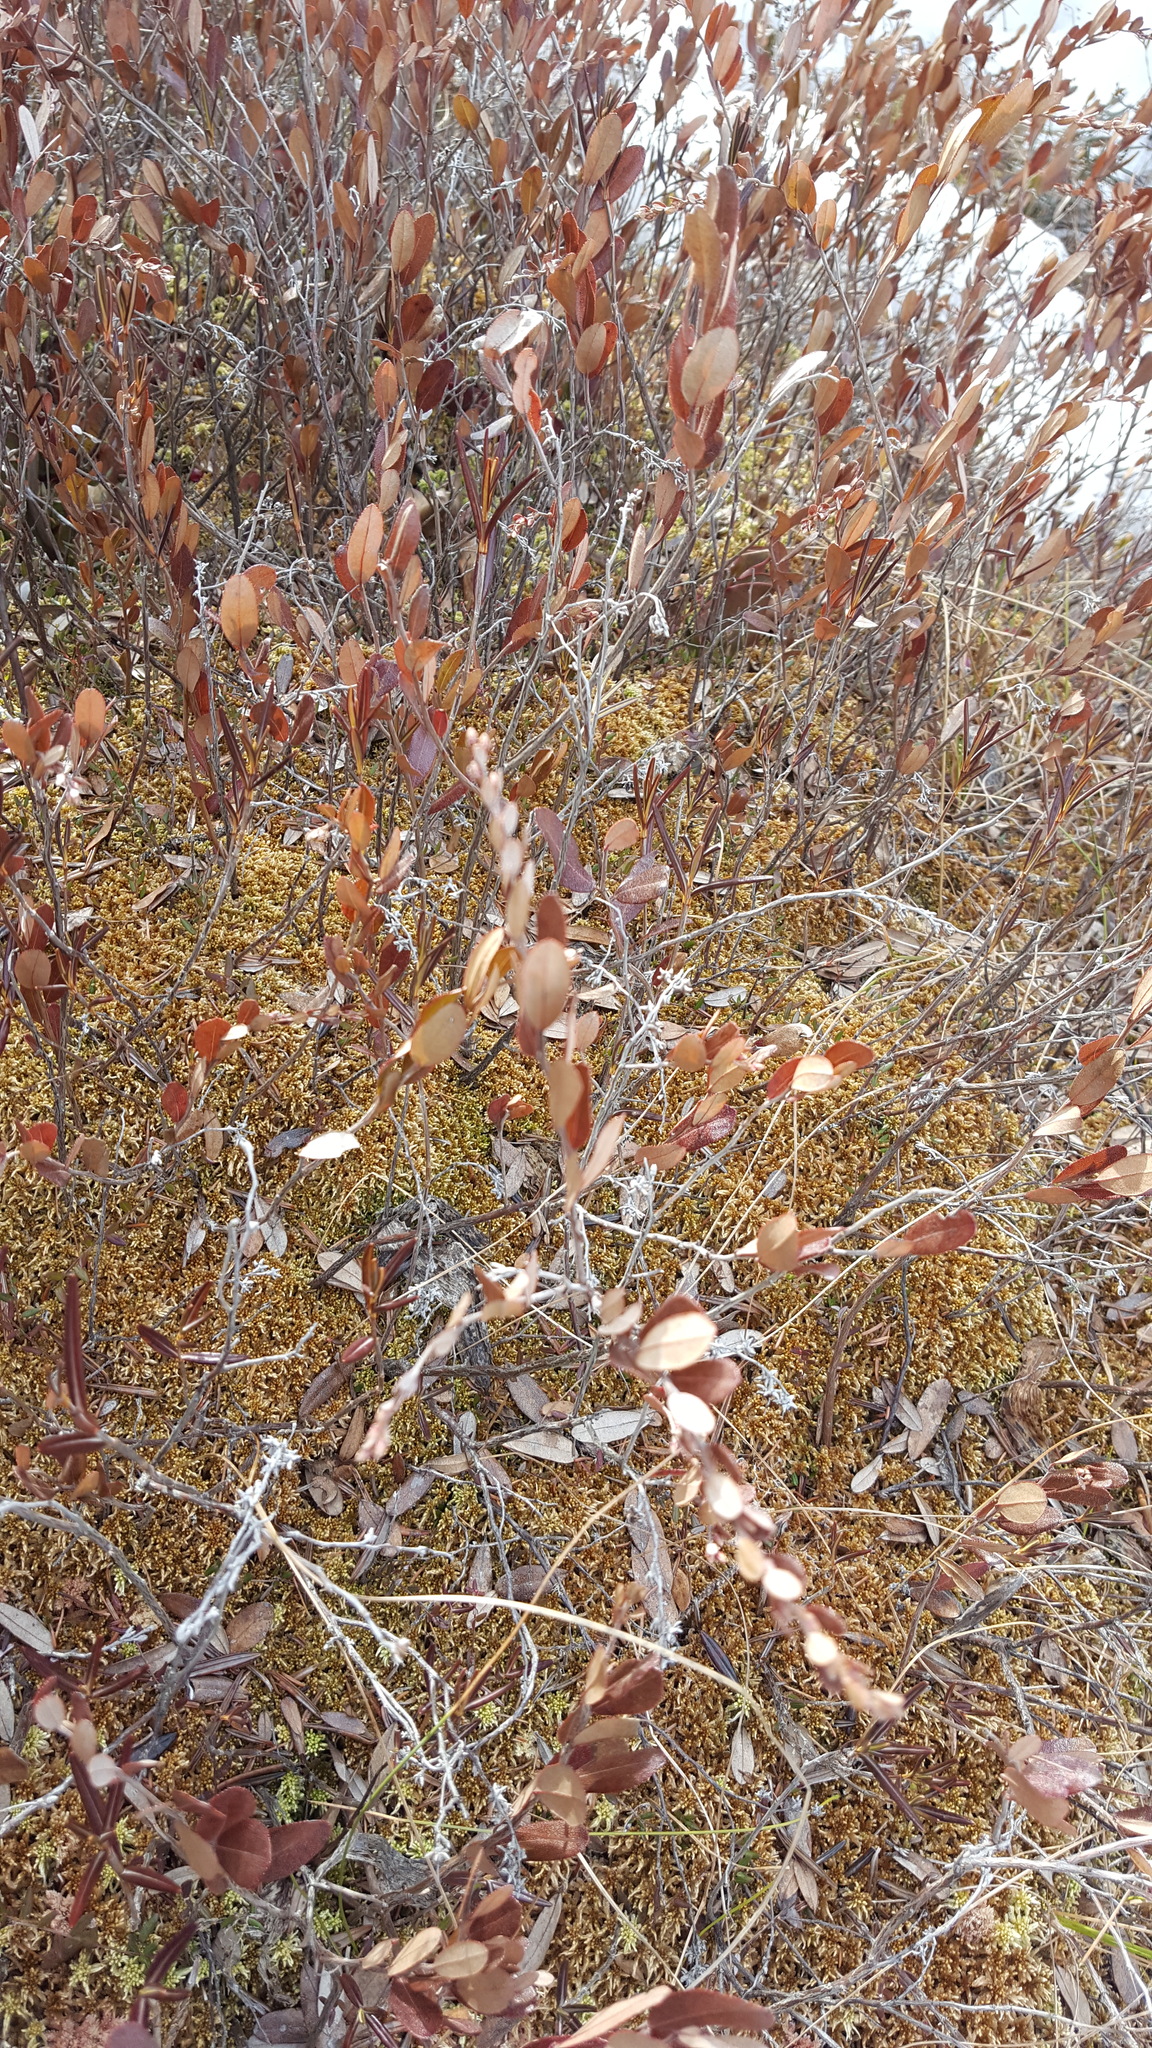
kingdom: Plantae
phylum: Tracheophyta
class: Magnoliopsida
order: Ericales
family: Ericaceae
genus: Chamaedaphne
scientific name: Chamaedaphne calyculata
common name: Leatherleaf
